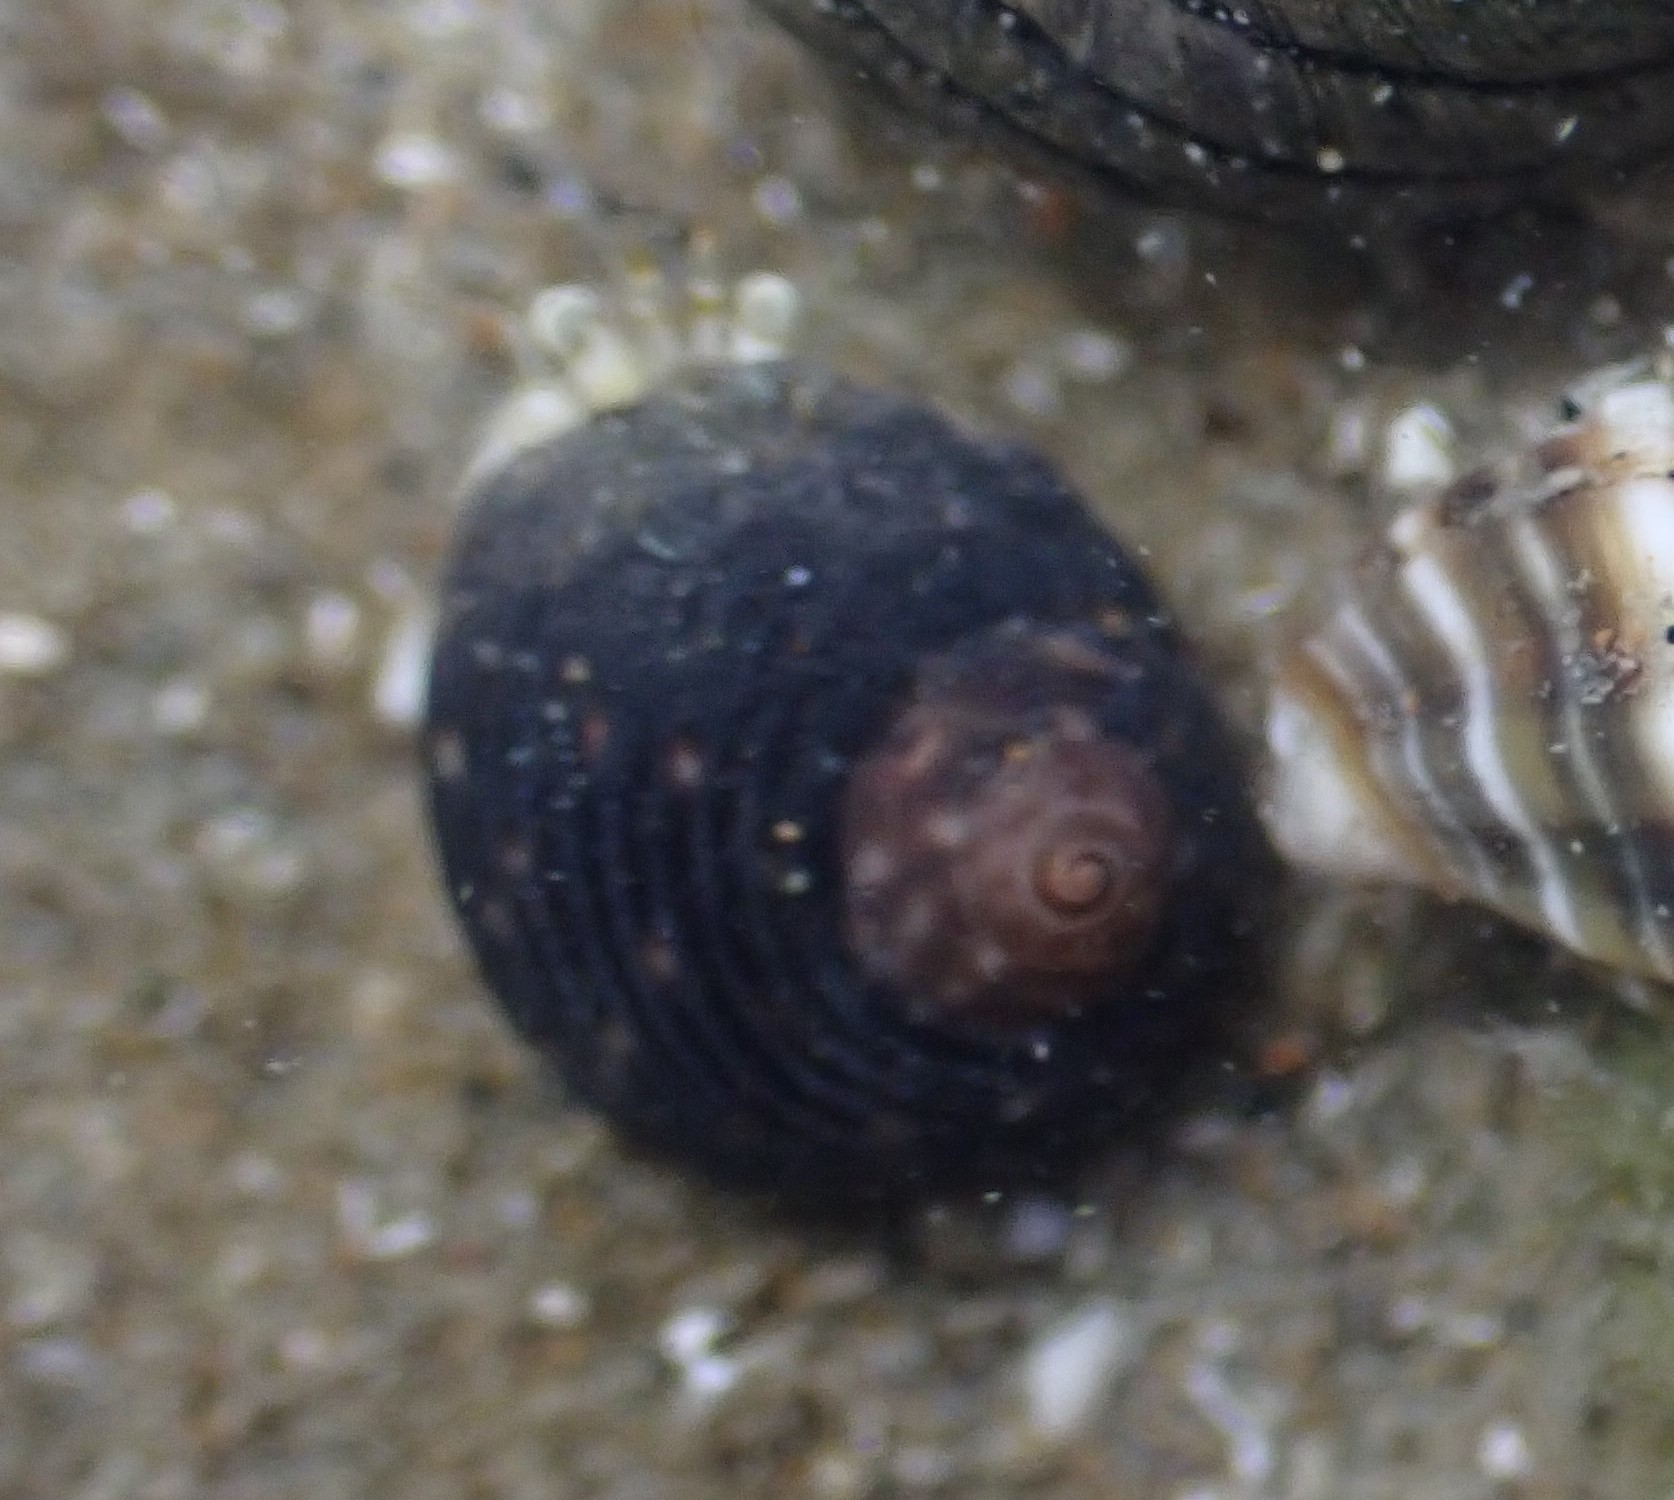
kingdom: Animalia
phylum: Mollusca
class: Gastropoda
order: Trochida
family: Trochidae
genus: Diloma
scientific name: Diloma zelandicum
